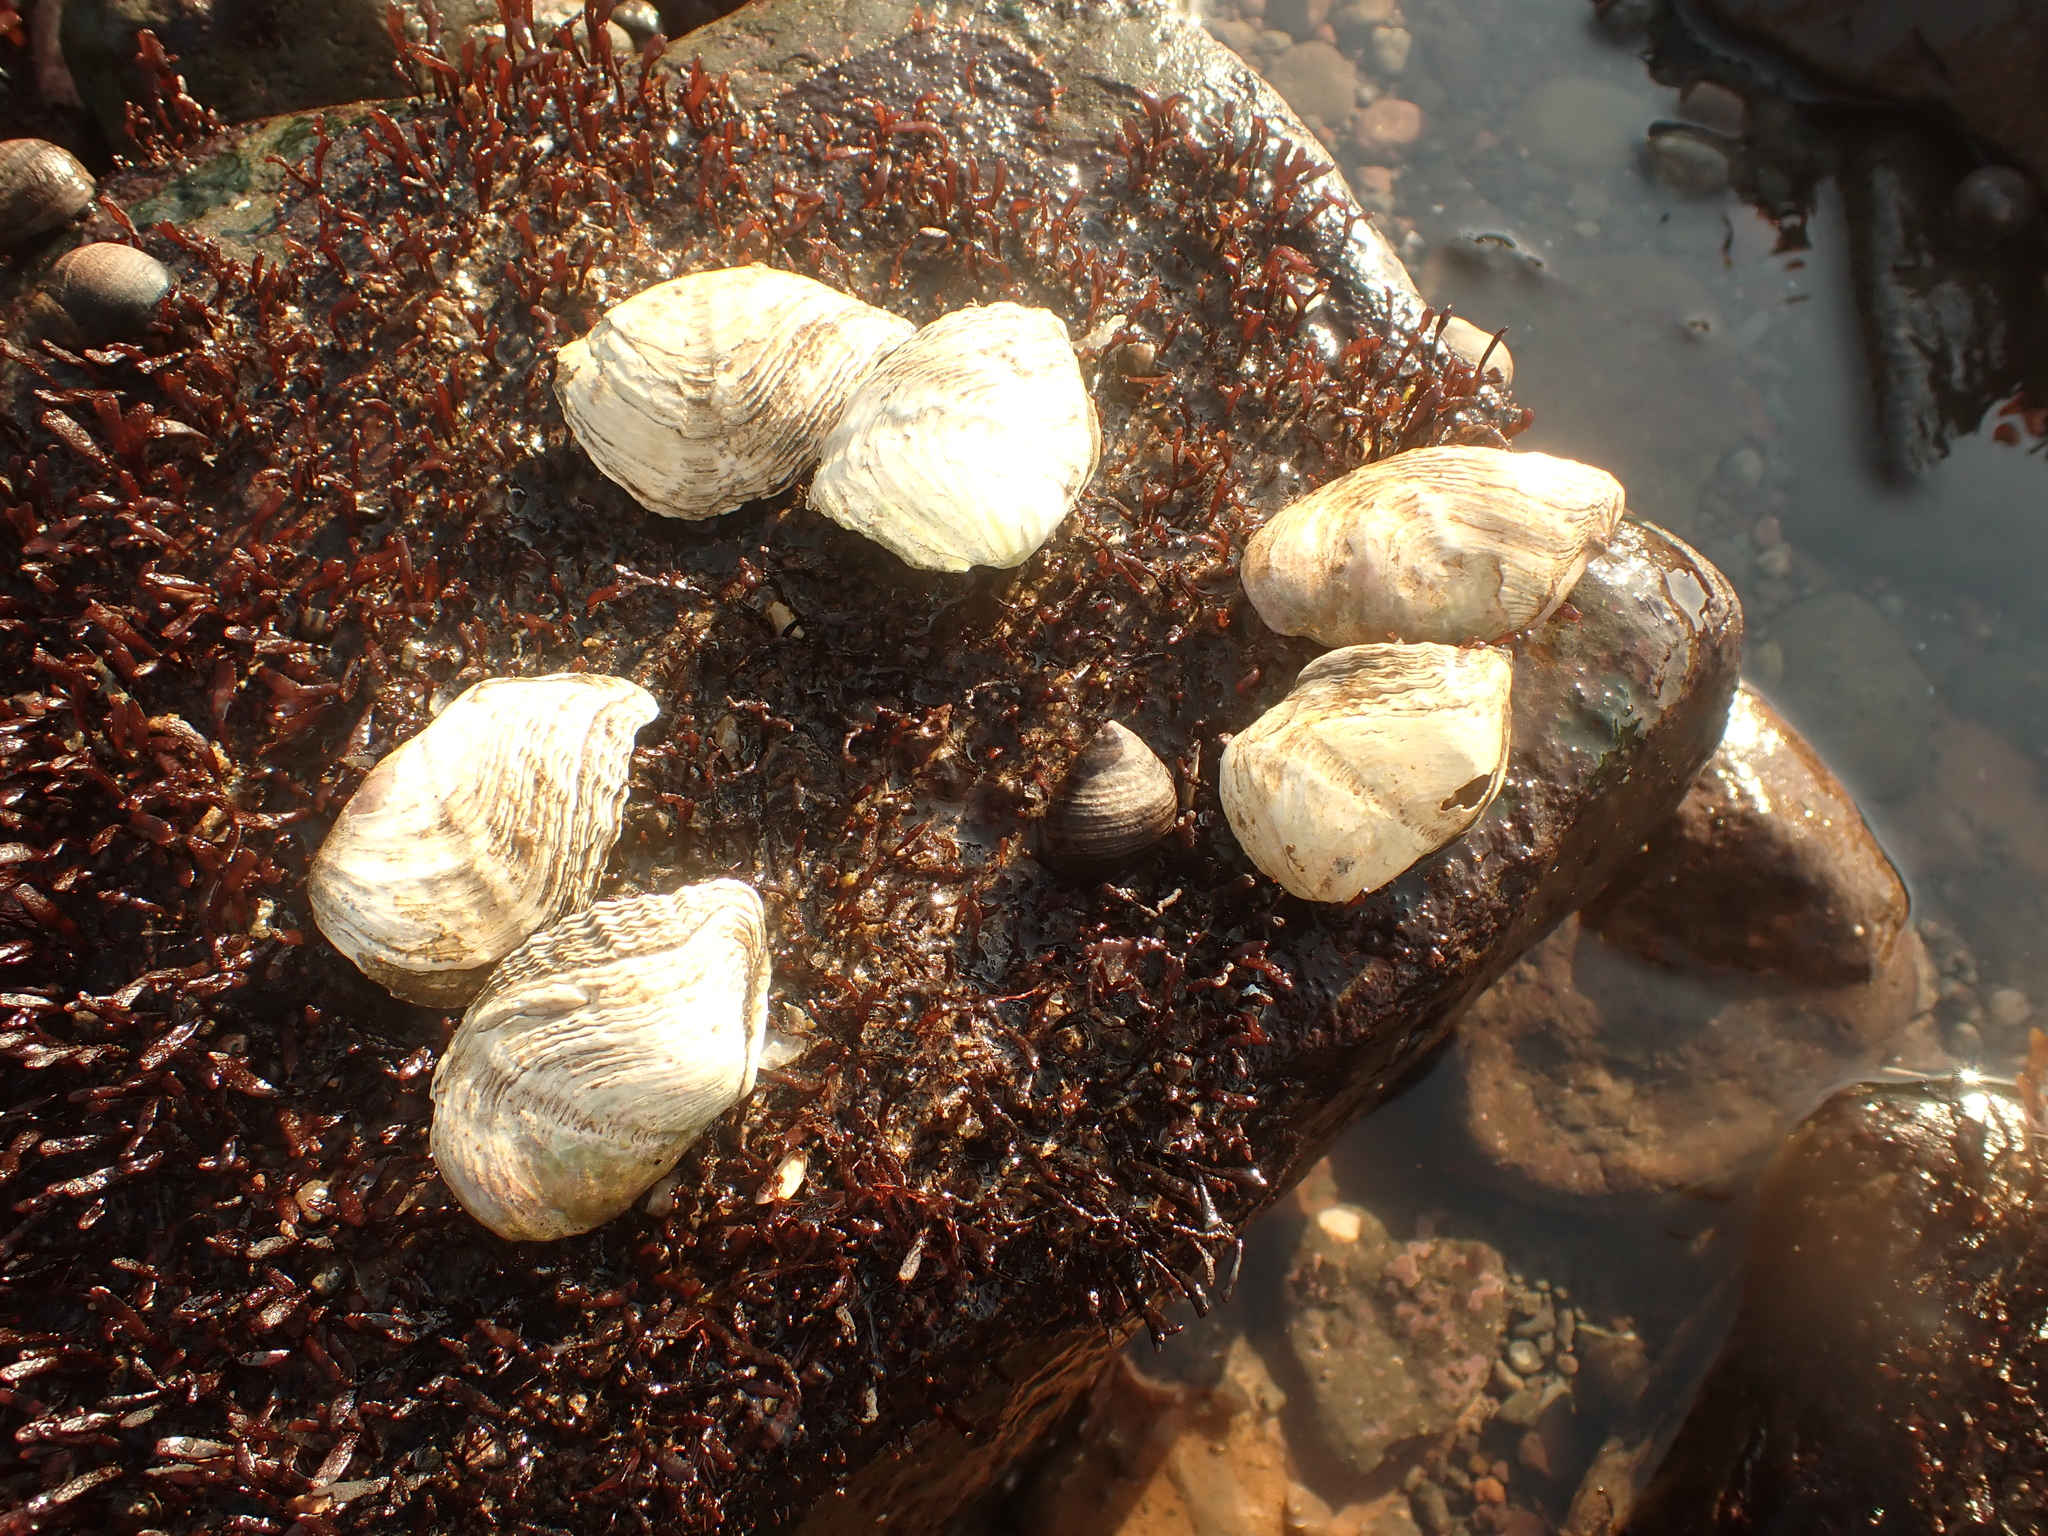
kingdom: Animalia
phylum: Mollusca
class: Bivalvia
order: Myida
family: Pholadidae
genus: Zirfaea
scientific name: Zirfaea crispata
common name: Oval piddock
